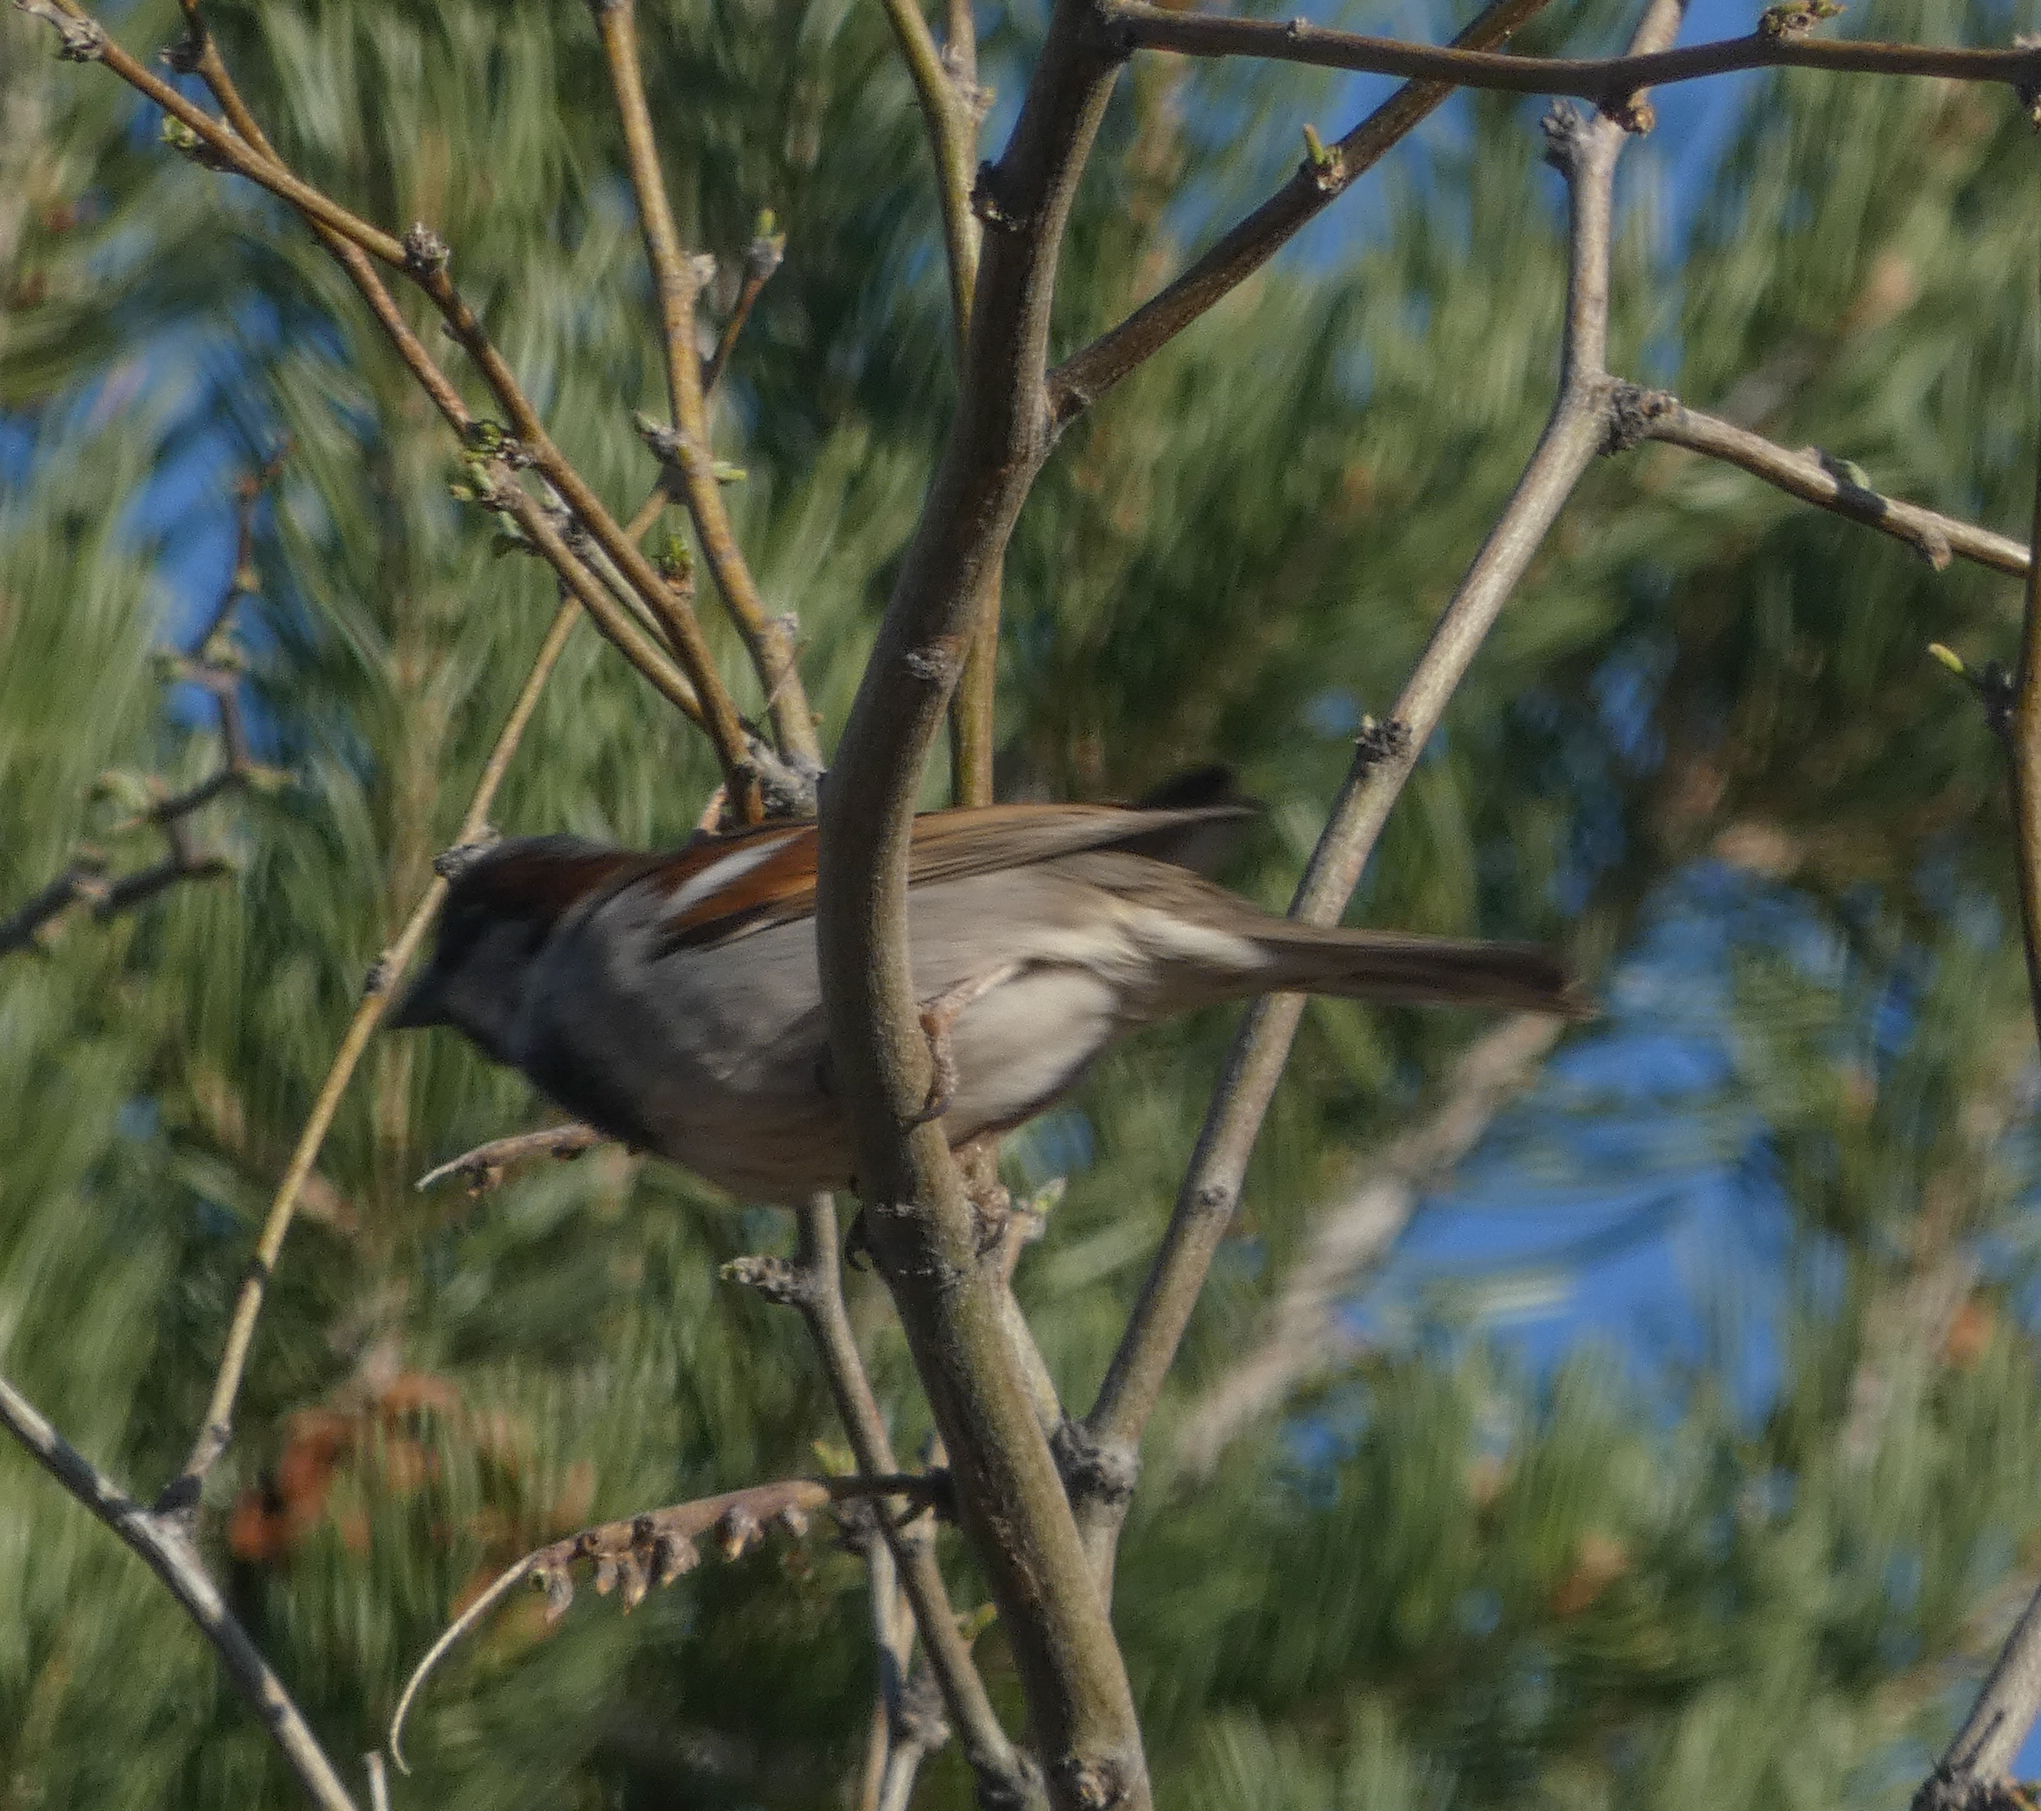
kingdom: Animalia
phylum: Chordata
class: Aves
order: Passeriformes
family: Passeridae
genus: Passer
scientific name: Passer domesticus
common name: House sparrow
